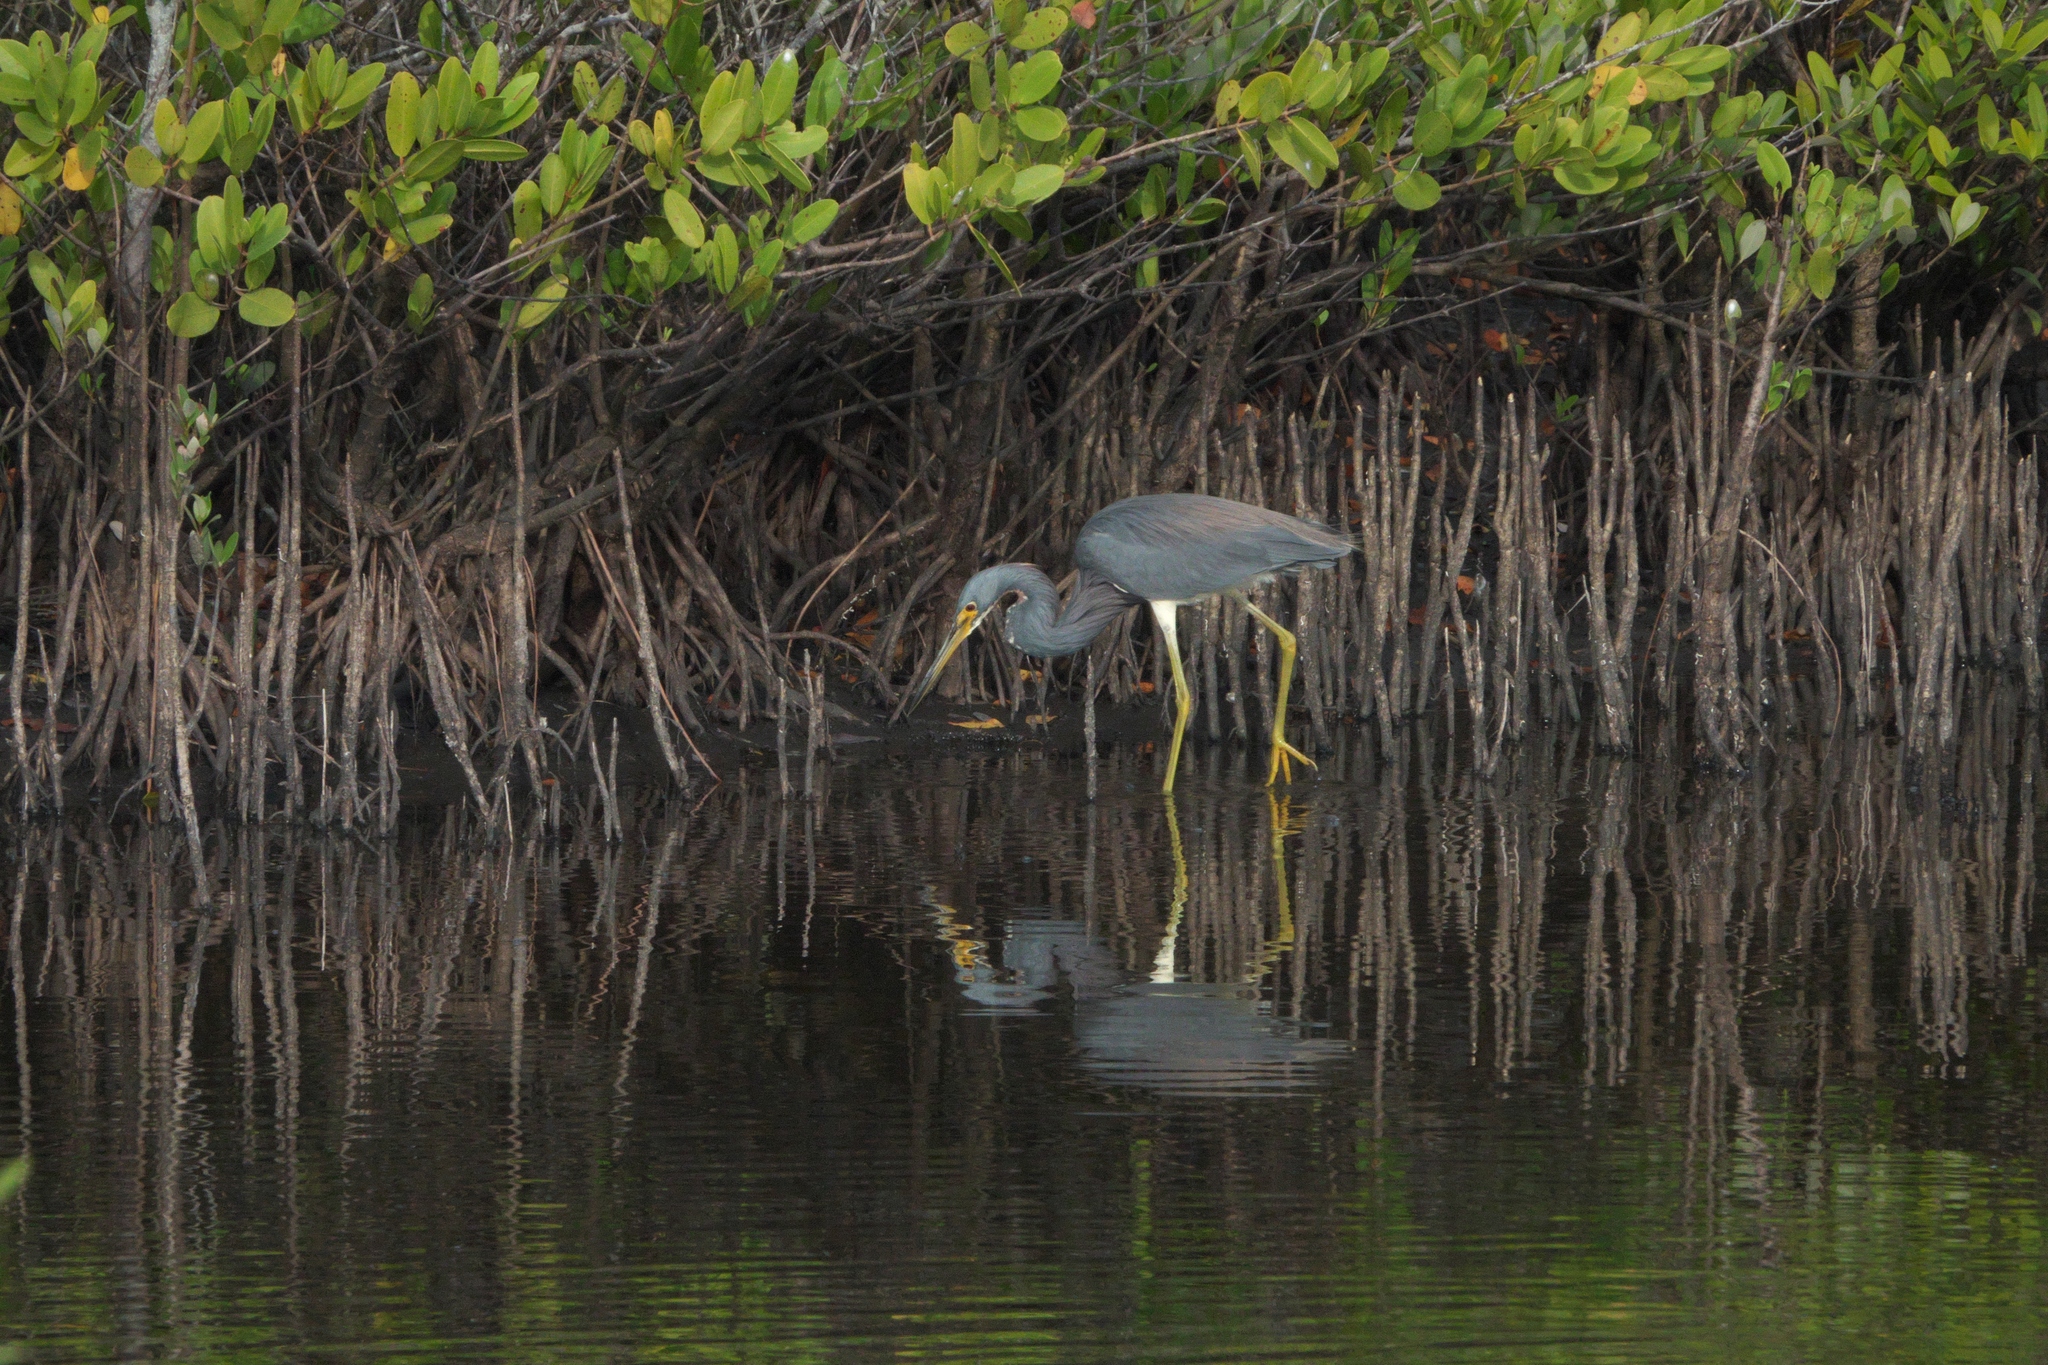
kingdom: Animalia
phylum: Chordata
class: Aves
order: Pelecaniformes
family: Ardeidae
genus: Egretta
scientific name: Egretta tricolor
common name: Tricolored heron
